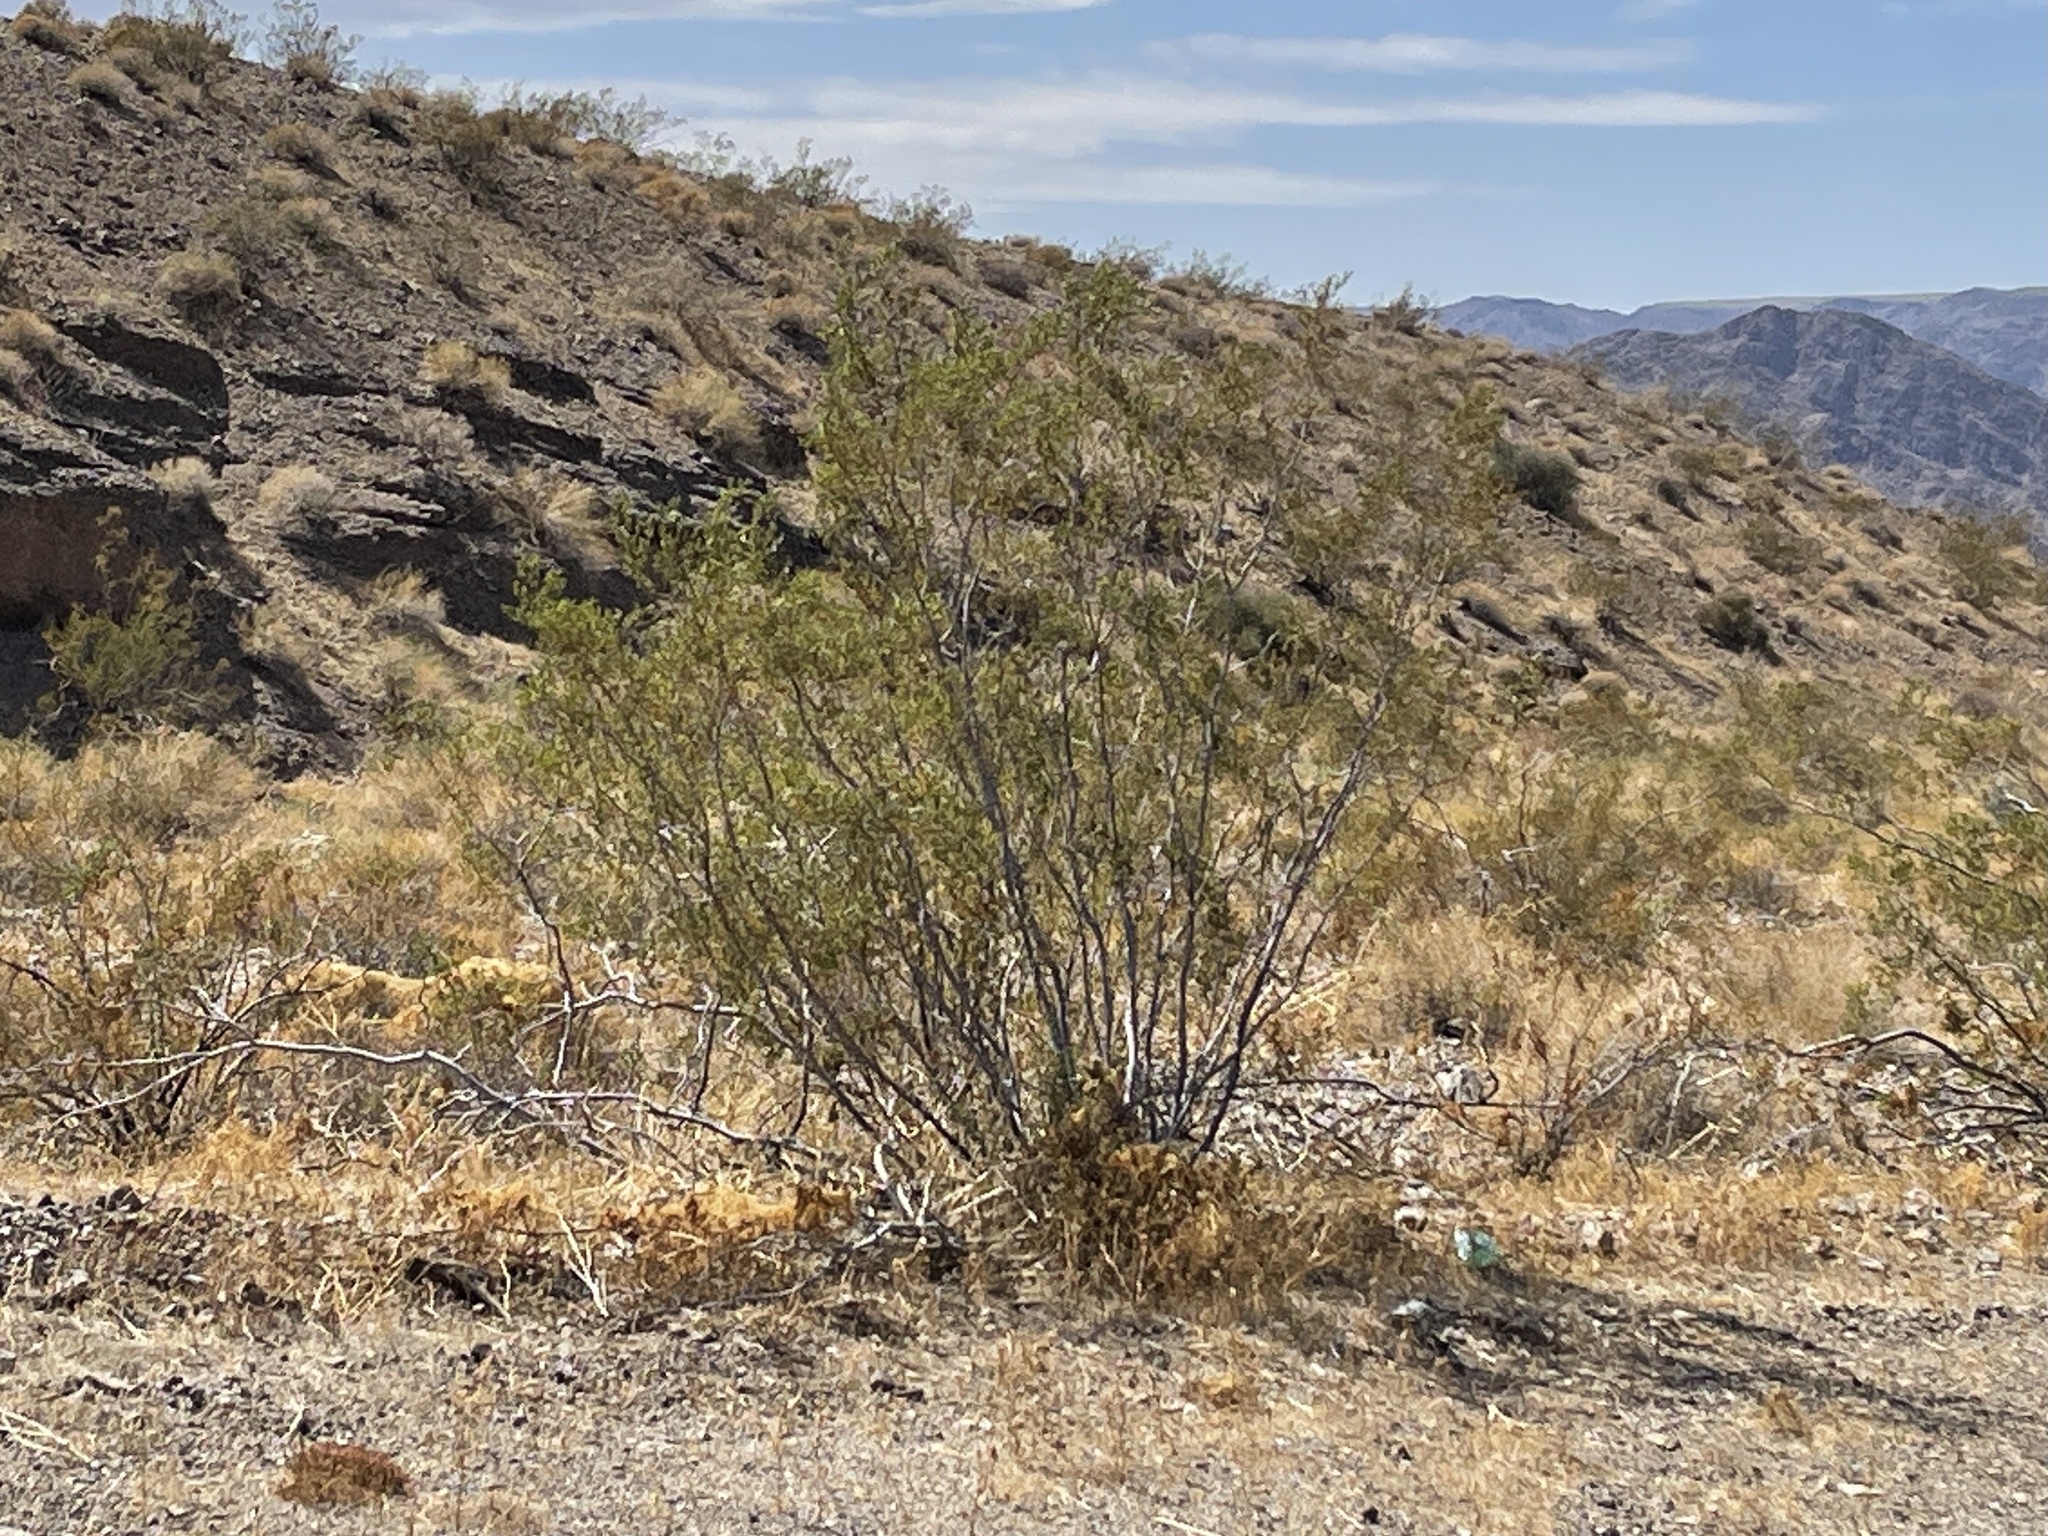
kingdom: Plantae
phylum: Tracheophyta
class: Magnoliopsida
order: Zygophyllales
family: Zygophyllaceae
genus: Larrea
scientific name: Larrea tridentata
